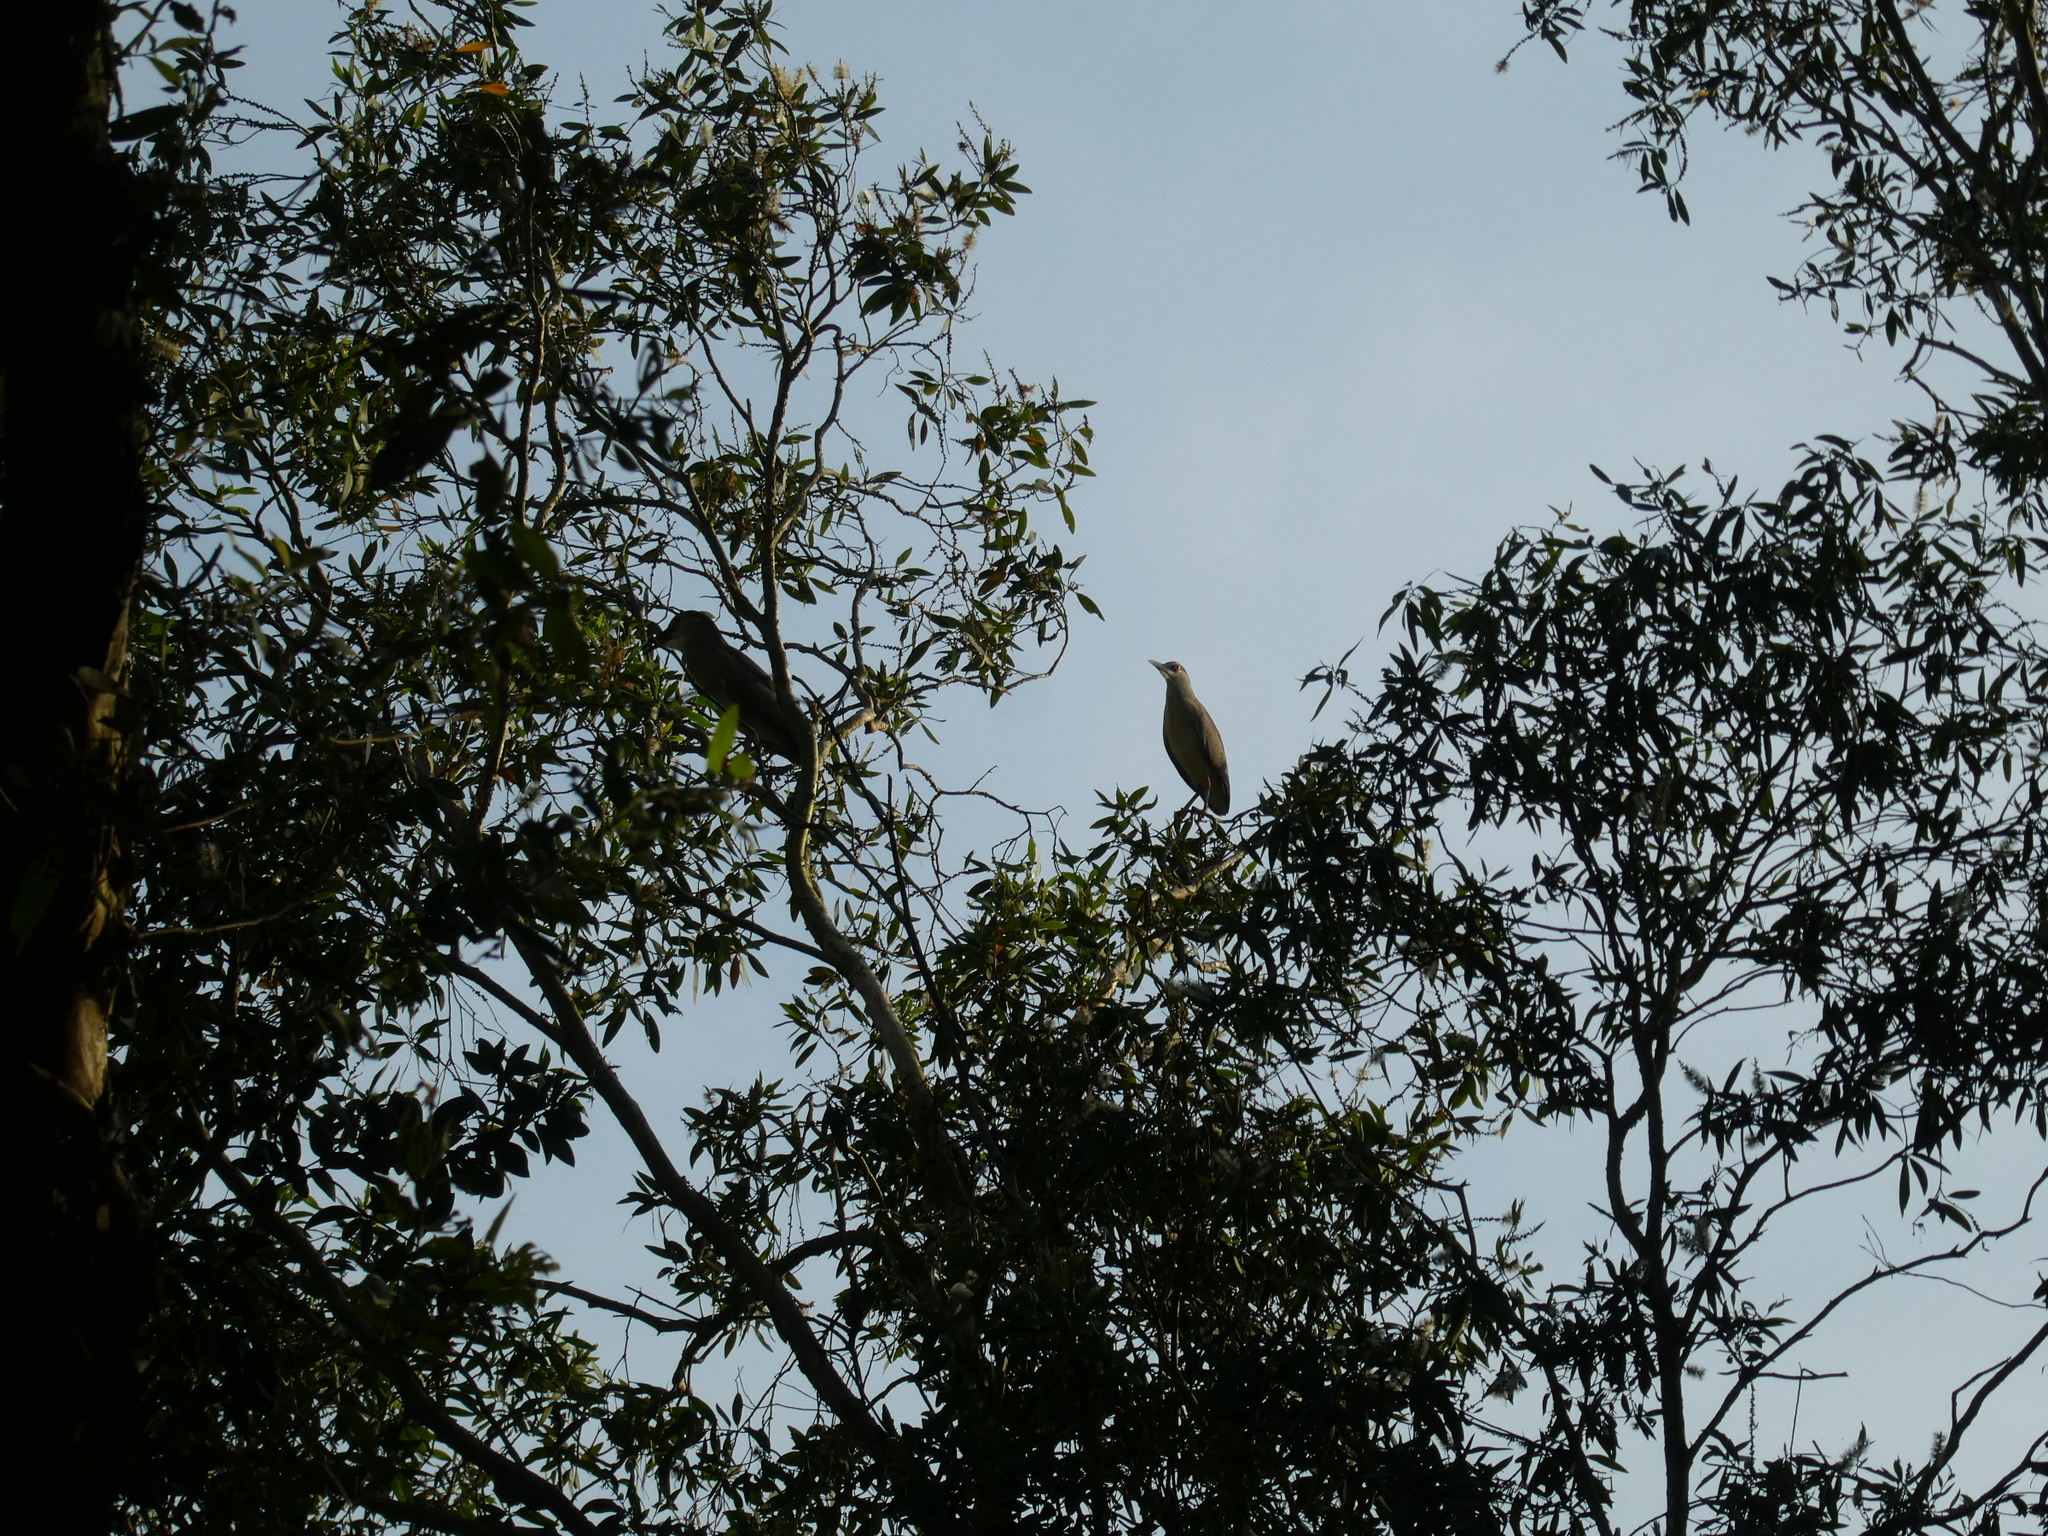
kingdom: Animalia
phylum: Chordata
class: Aves
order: Pelecaniformes
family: Ardeidae
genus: Butorides
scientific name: Butorides striata
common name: Striated heron
